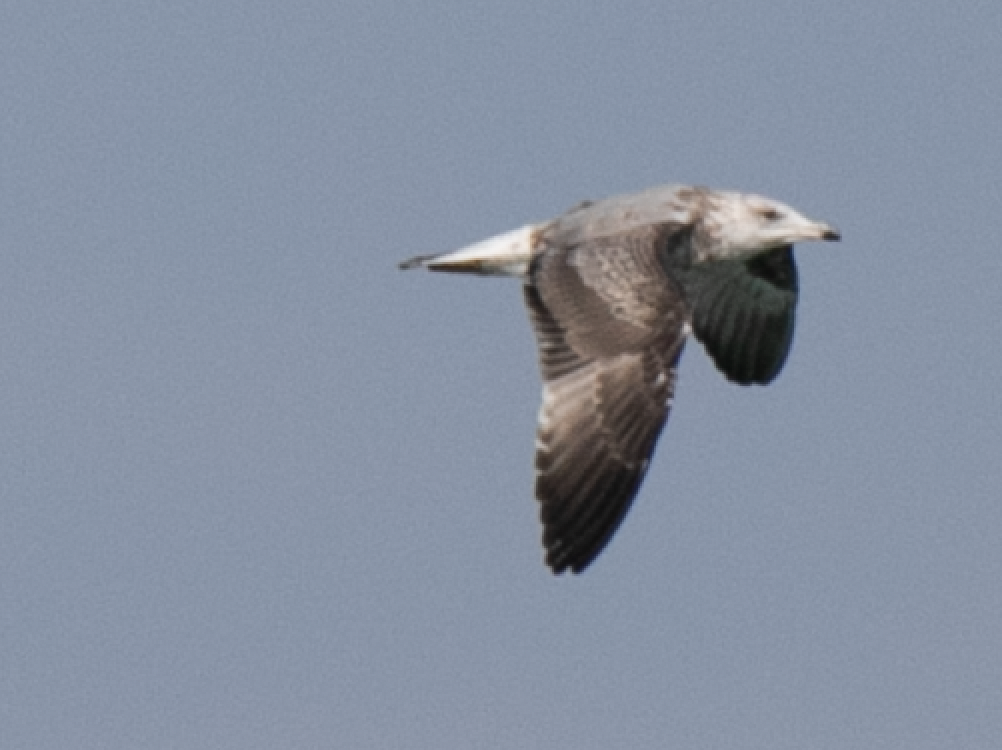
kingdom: Animalia
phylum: Chordata
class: Aves
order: Charadriiformes
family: Laridae
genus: Larus
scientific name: Larus michahellis
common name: Yellow-legged gull
